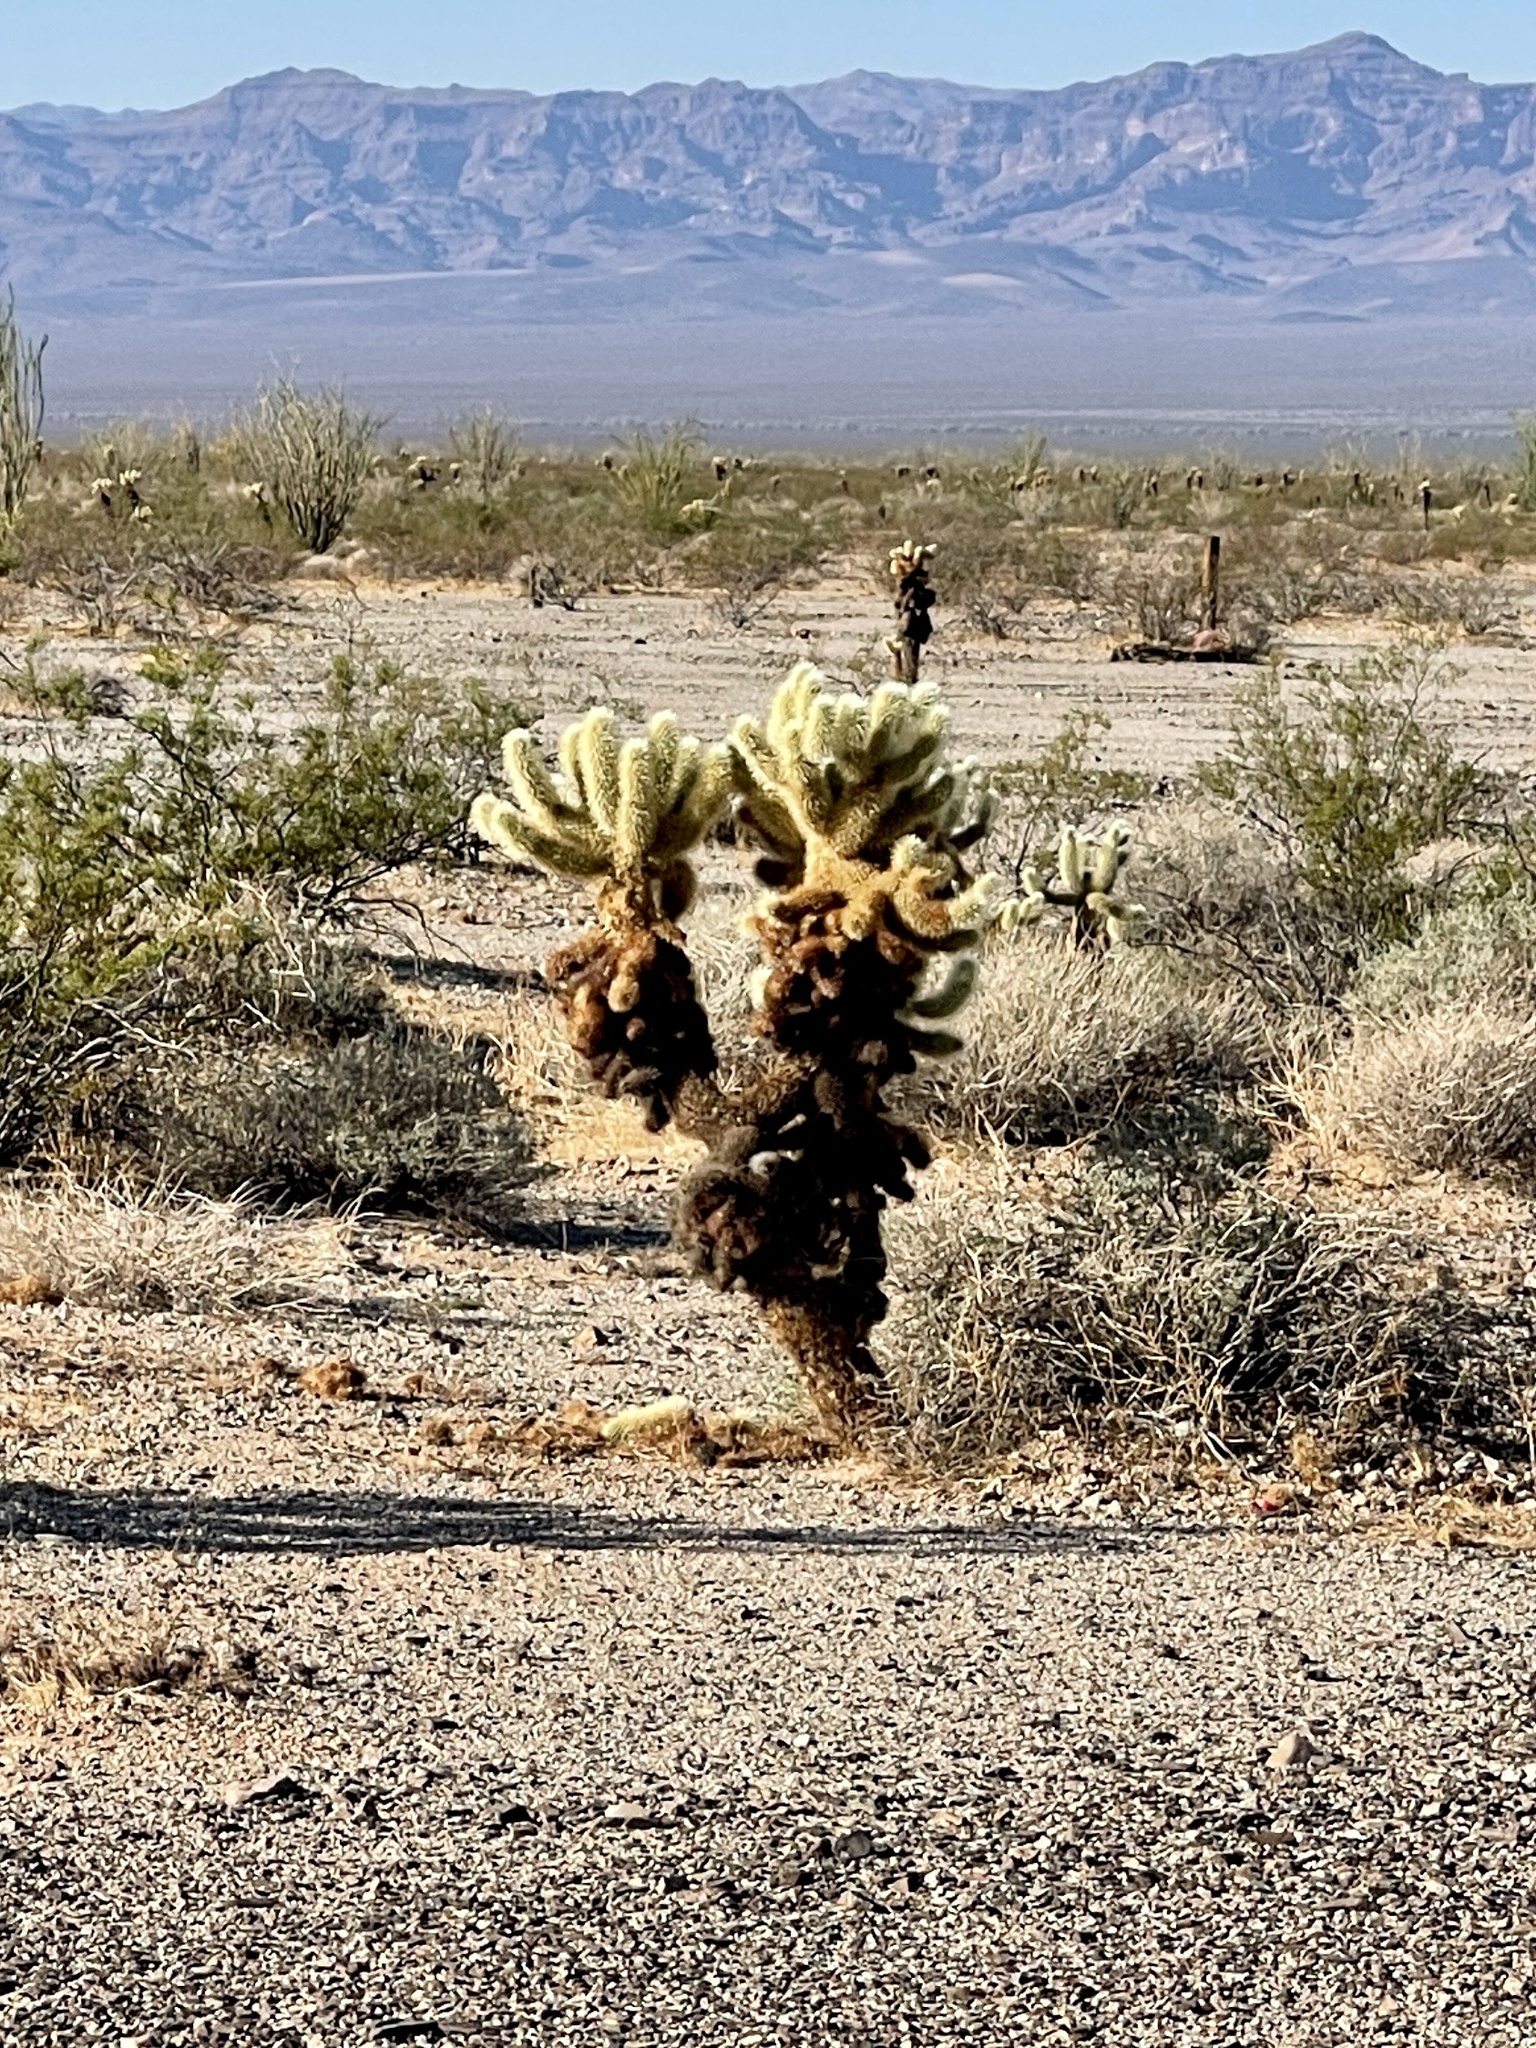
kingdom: Plantae
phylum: Tracheophyta
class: Magnoliopsida
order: Caryophyllales
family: Cactaceae
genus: Cylindropuntia
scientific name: Cylindropuntia fosbergii
